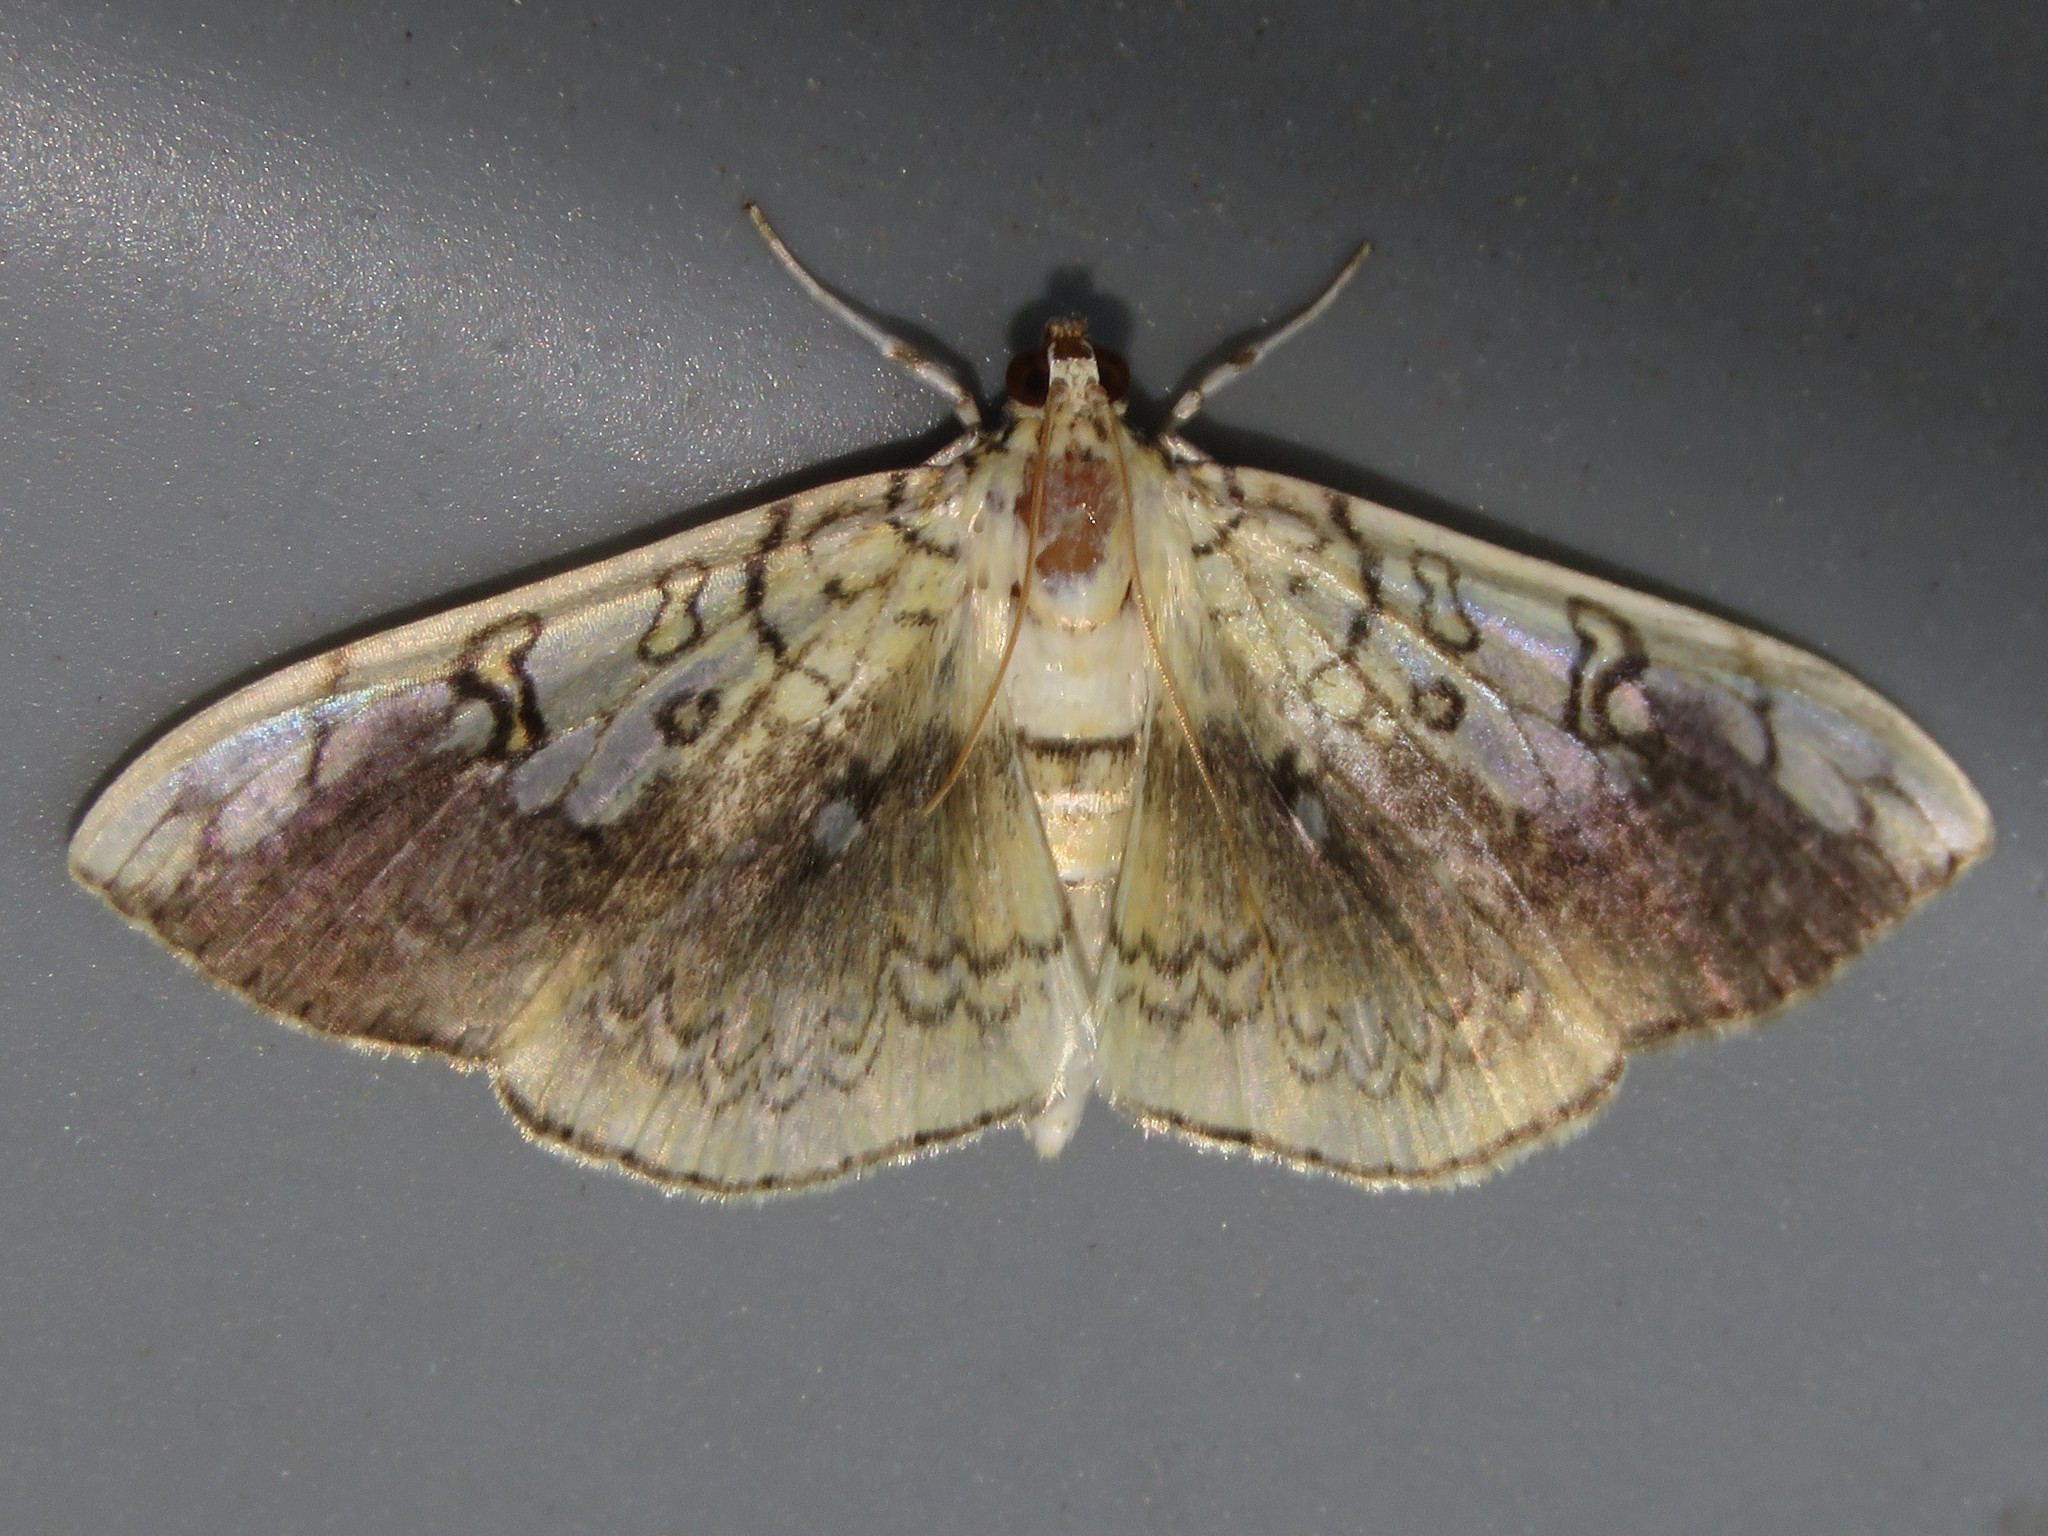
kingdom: Animalia
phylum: Arthropoda
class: Insecta
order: Lepidoptera
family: Crambidae
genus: Pantographa
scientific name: Pantographa limata
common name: Basswood leafroller moth
